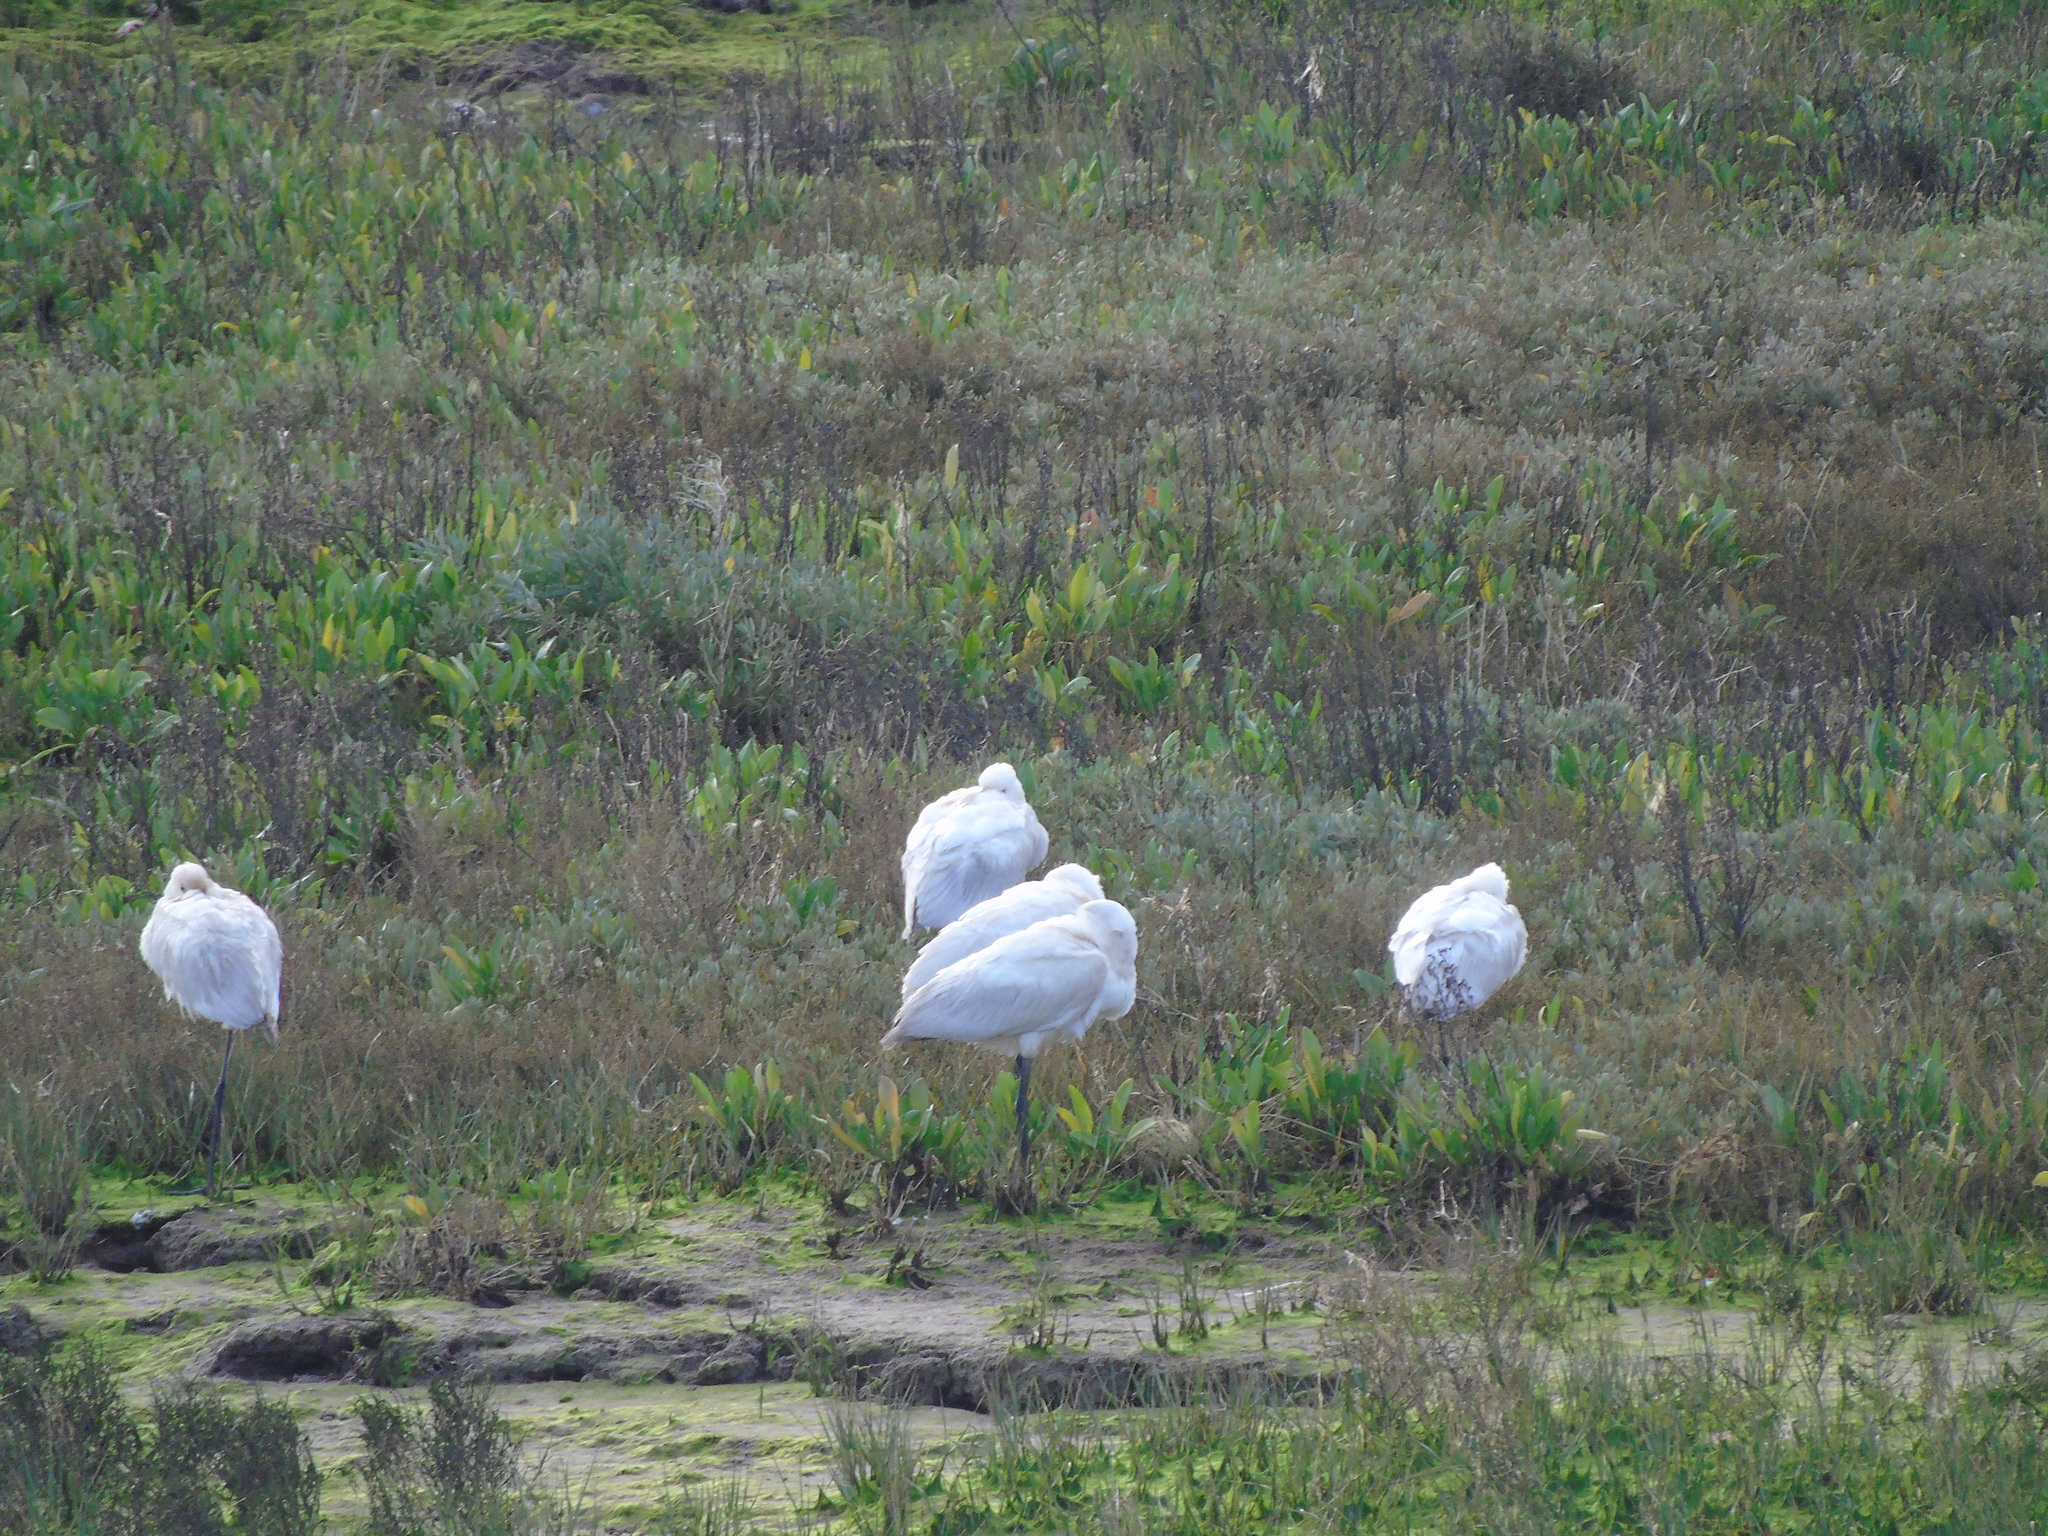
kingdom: Animalia
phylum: Chordata
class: Aves
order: Pelecaniformes
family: Threskiornithidae
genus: Platalea
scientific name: Platalea leucorodia
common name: Eurasian spoonbill
